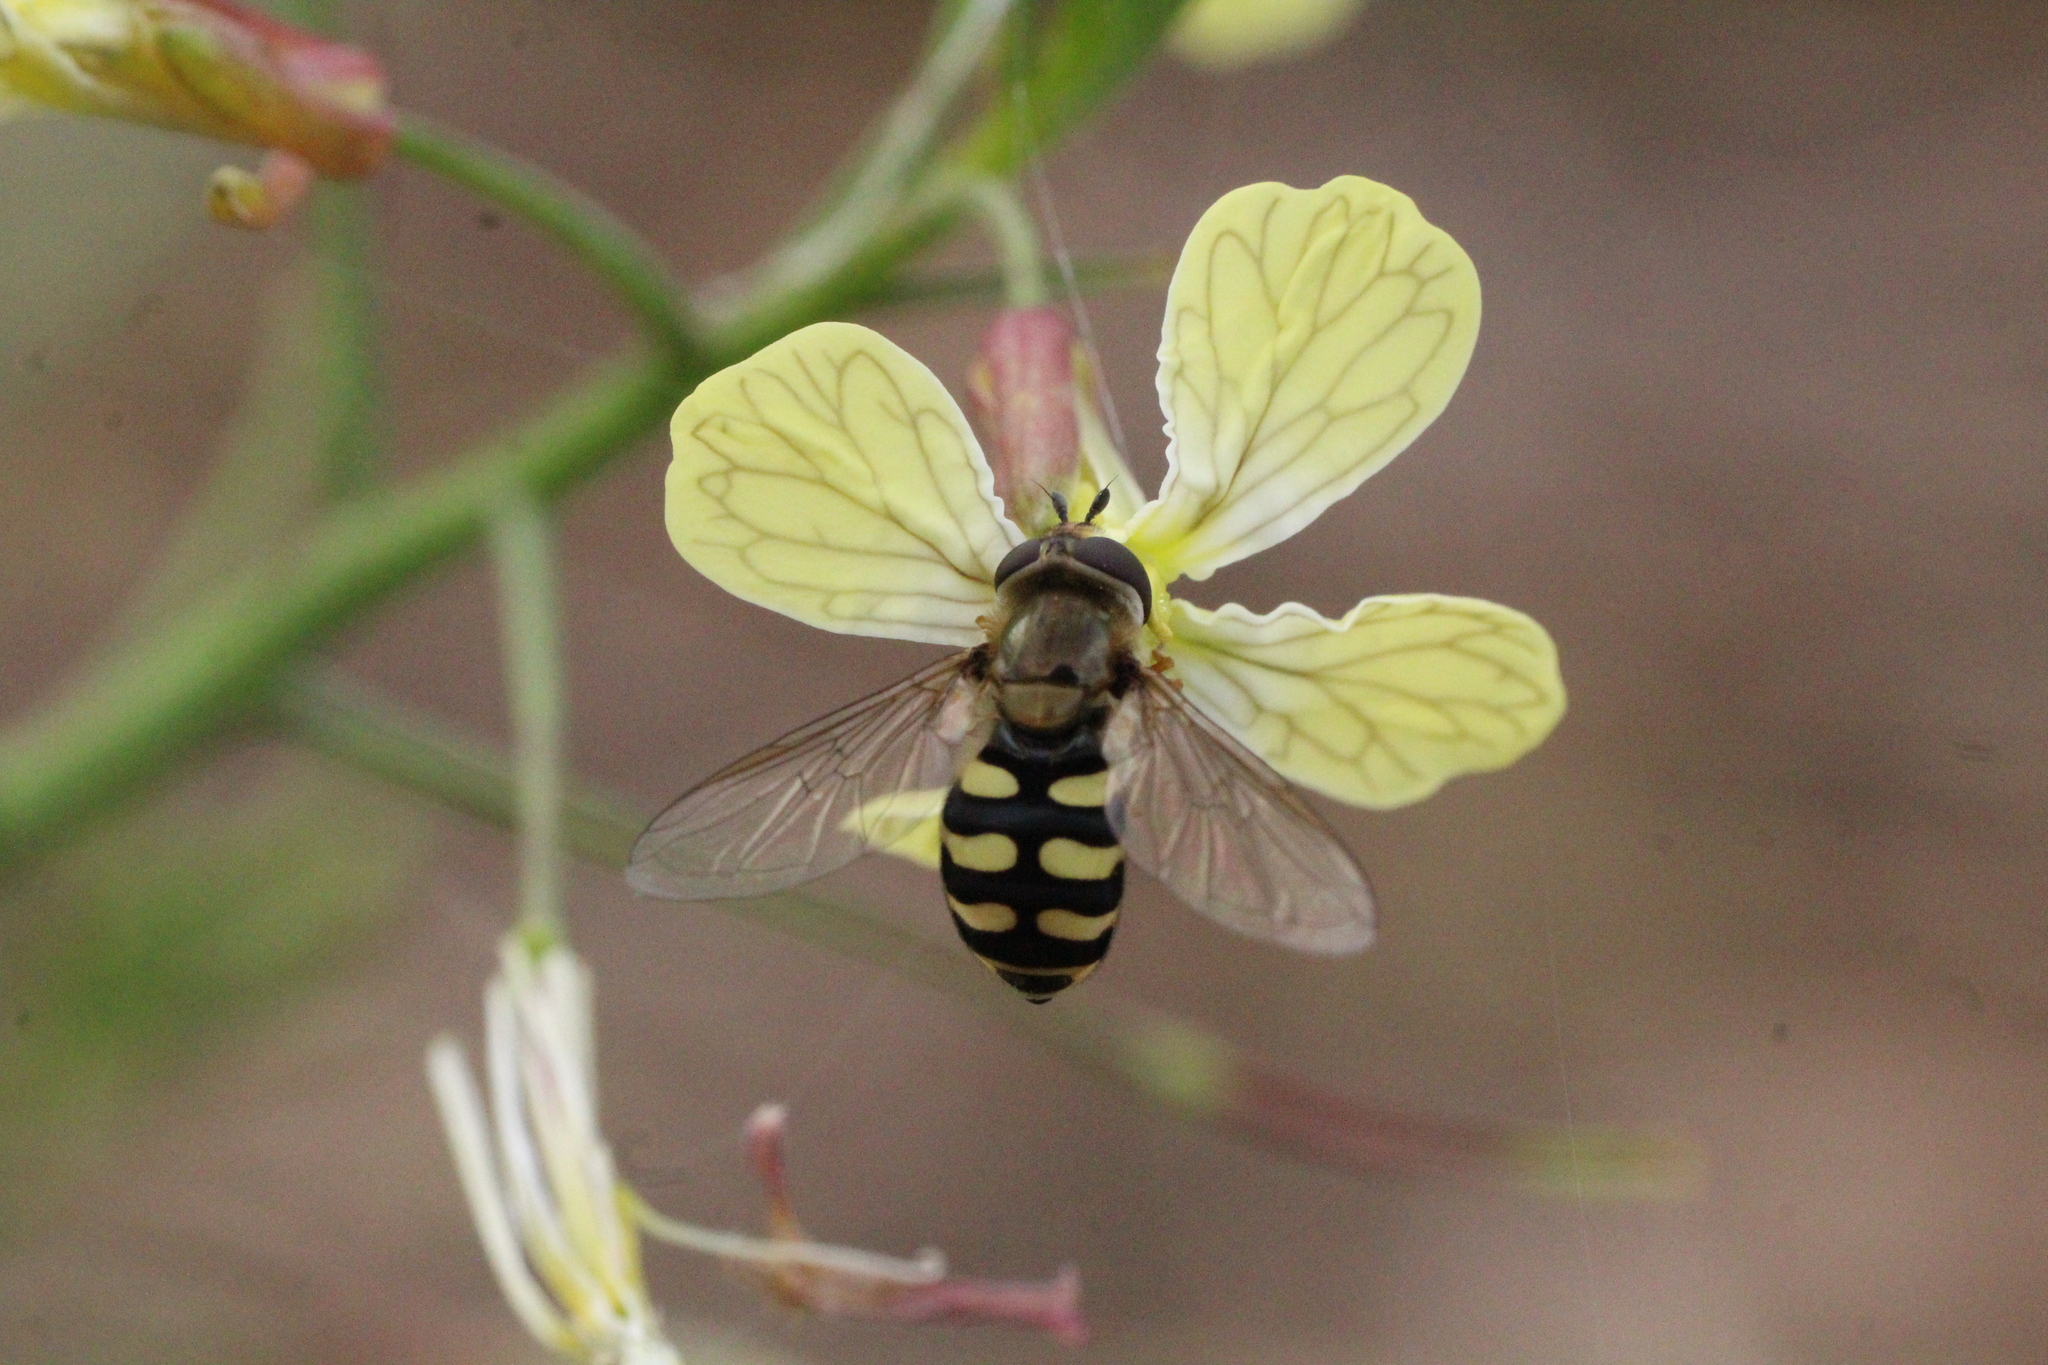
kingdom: Animalia
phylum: Arthropoda
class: Insecta
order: Diptera
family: Syrphidae
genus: Eupeodes
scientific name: Eupeodes corollae
